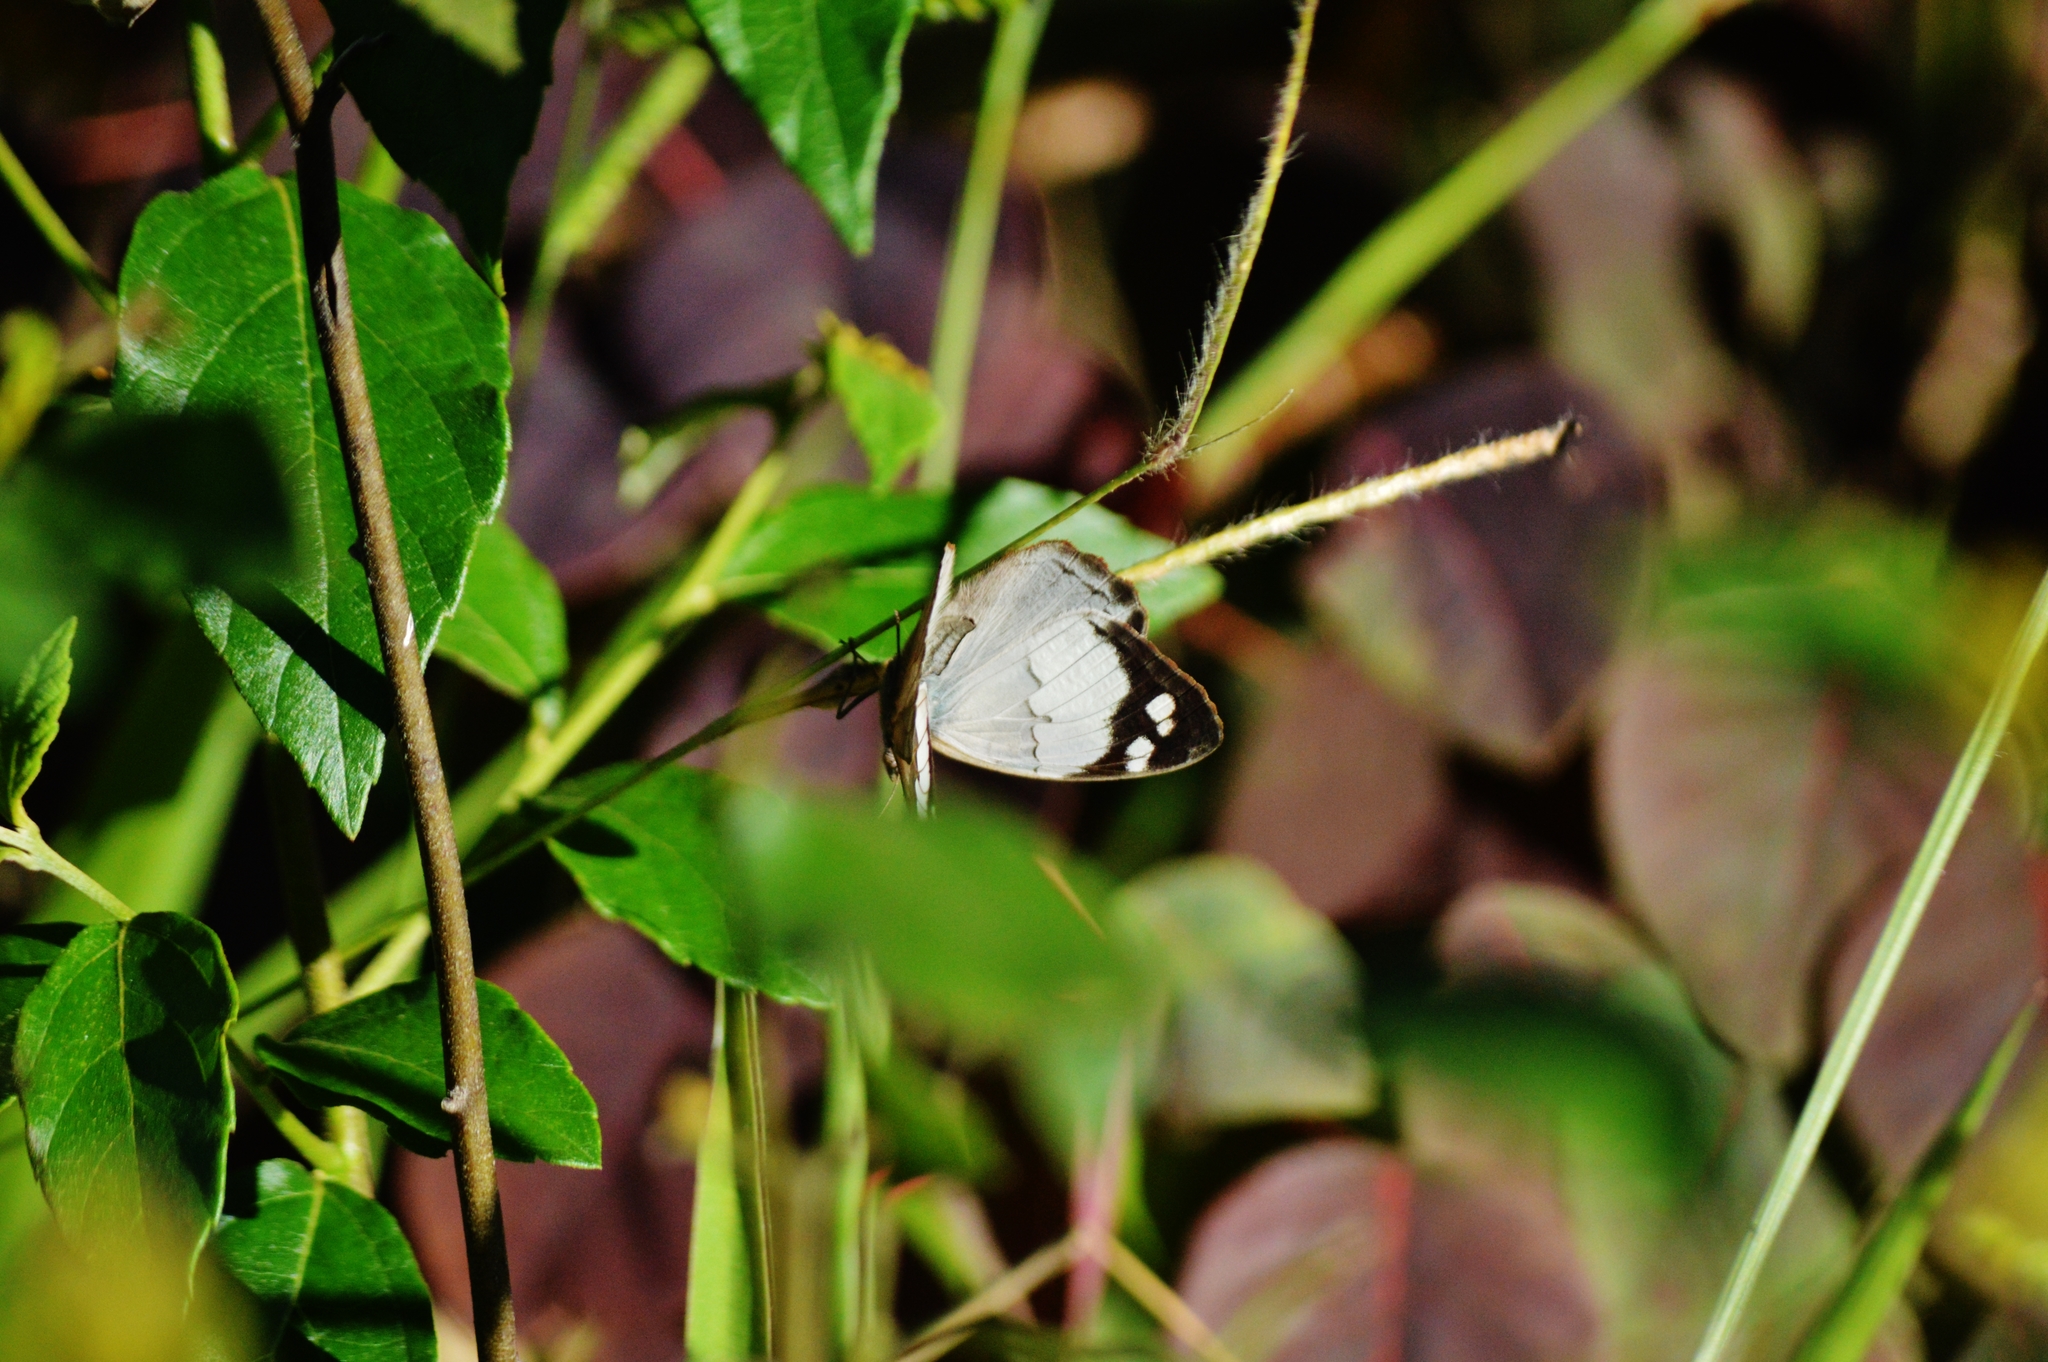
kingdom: Animalia
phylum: Arthropoda
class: Insecta
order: Lepidoptera
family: Nymphalidae
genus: Eunica
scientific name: Eunica eburnea
